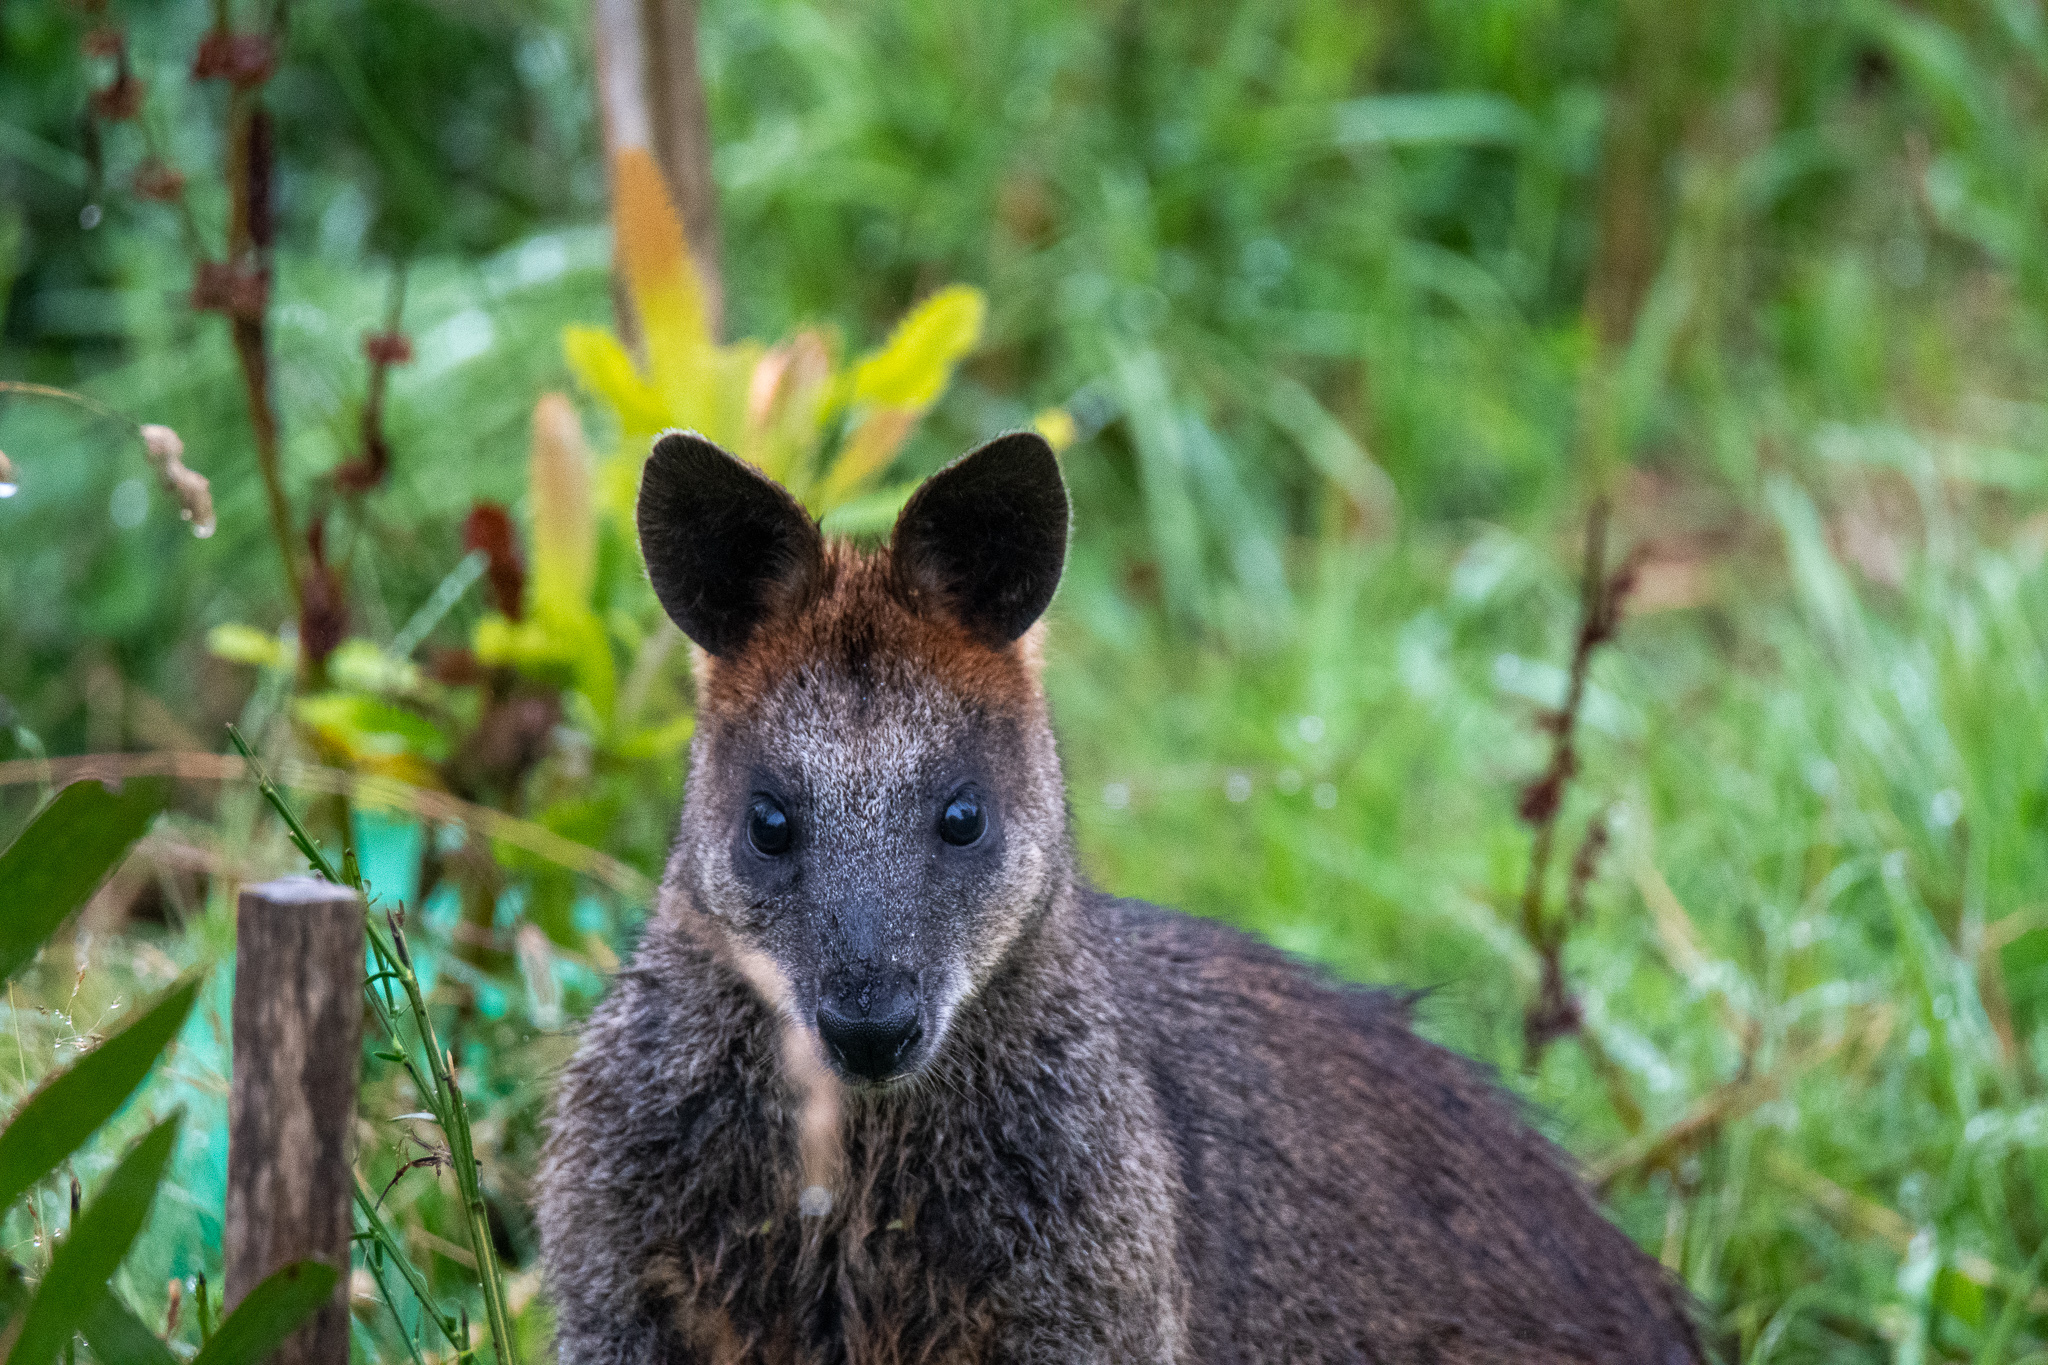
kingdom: Animalia
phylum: Chordata
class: Mammalia
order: Diprotodontia
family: Macropodidae
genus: Wallabia
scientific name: Wallabia bicolor
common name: Swamp wallaby
